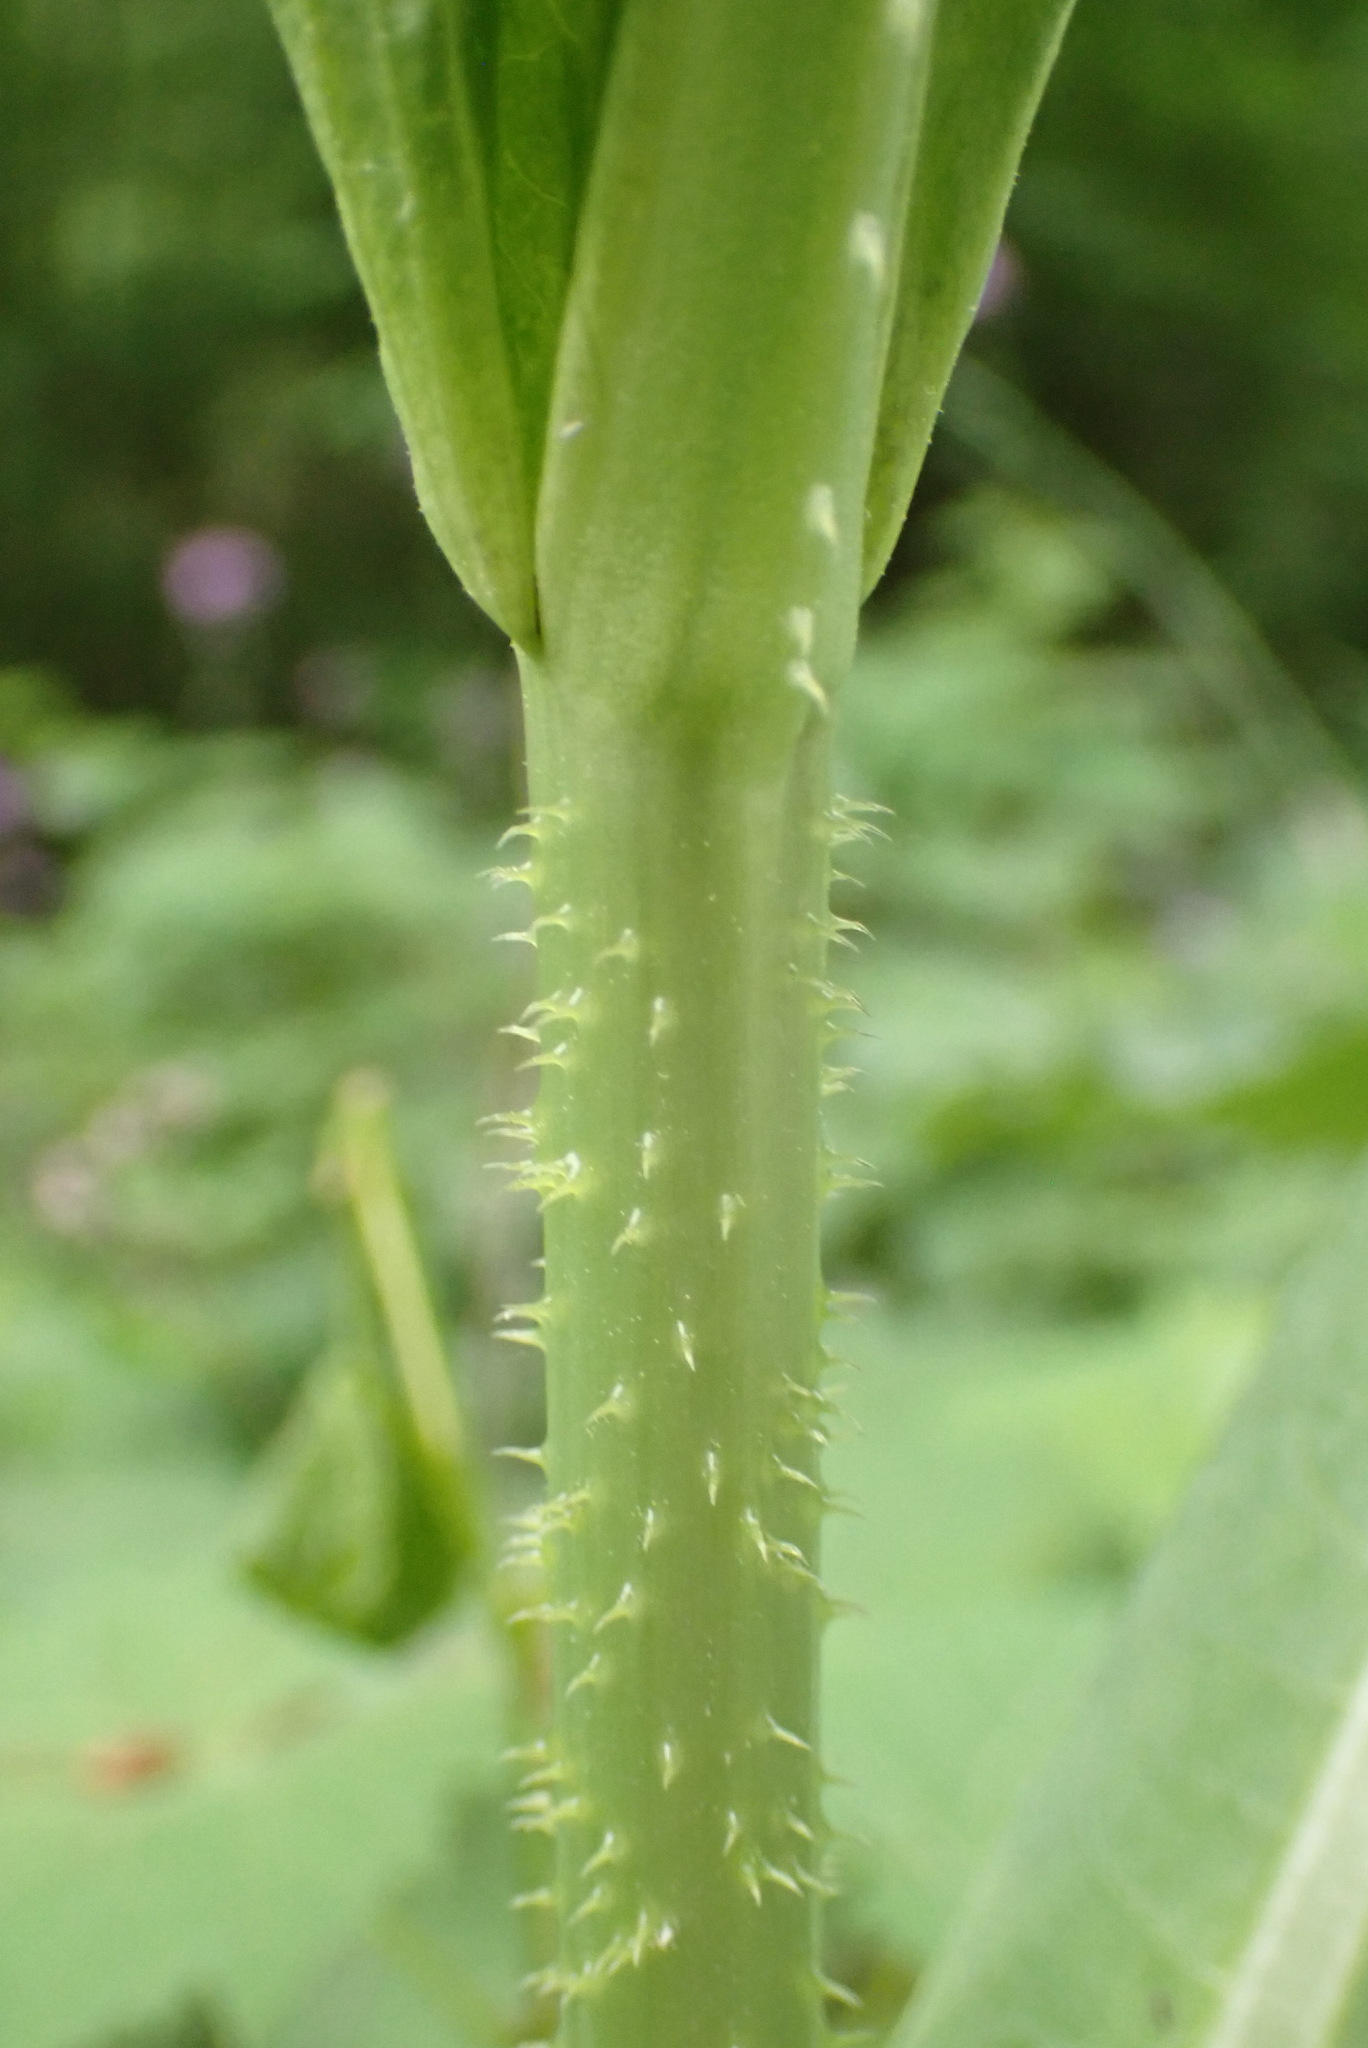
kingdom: Plantae
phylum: Tracheophyta
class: Magnoliopsida
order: Dipsacales
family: Caprifoliaceae
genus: Dipsacus
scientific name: Dipsacus fullonum
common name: Teasel
